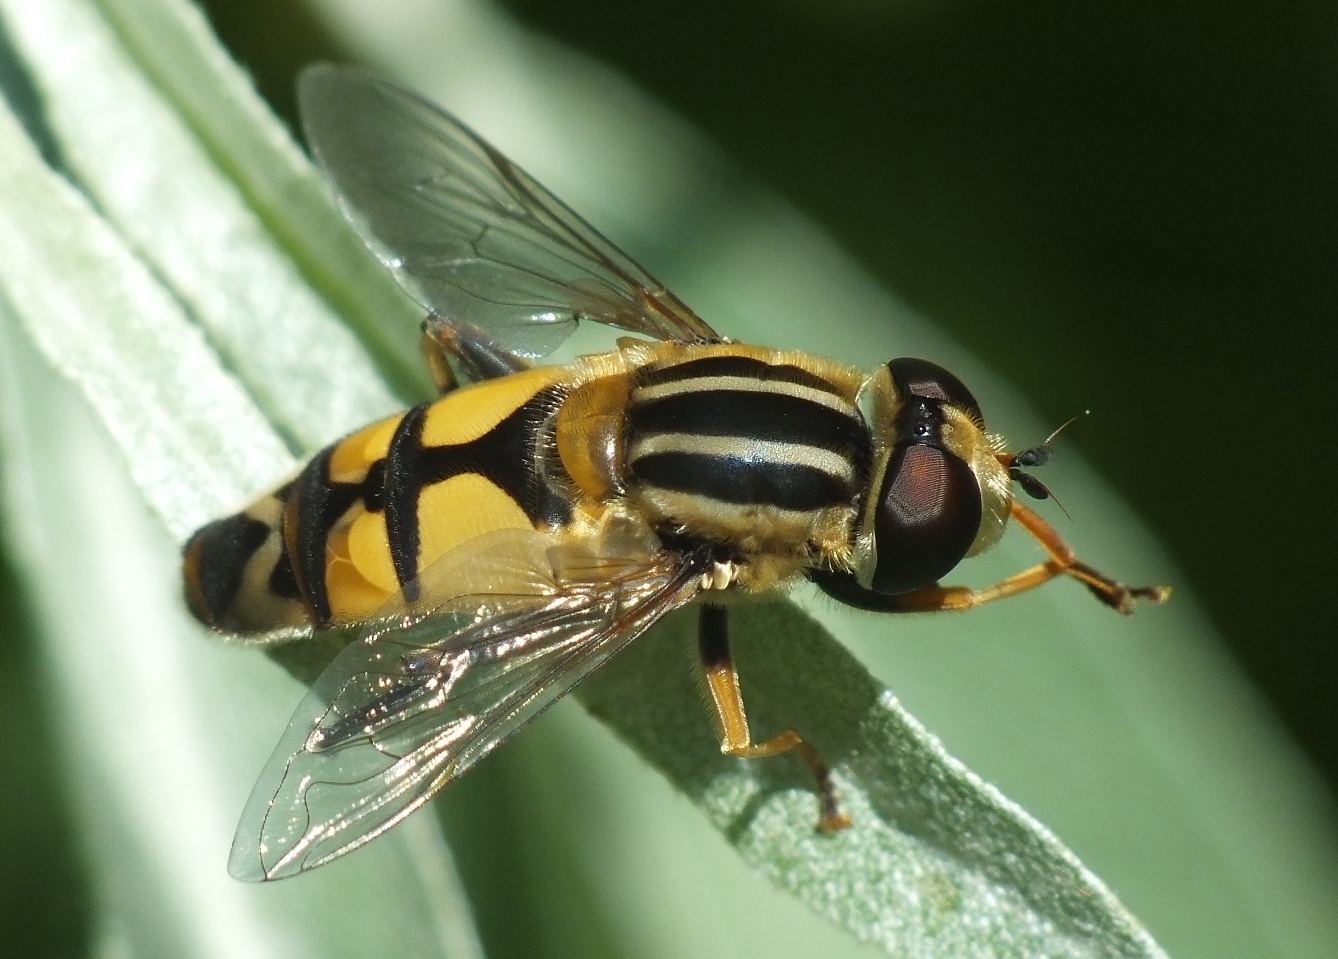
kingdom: Animalia
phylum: Arthropoda
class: Insecta
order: Diptera
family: Syrphidae
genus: Helophilus
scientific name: Helophilus trivittatus
